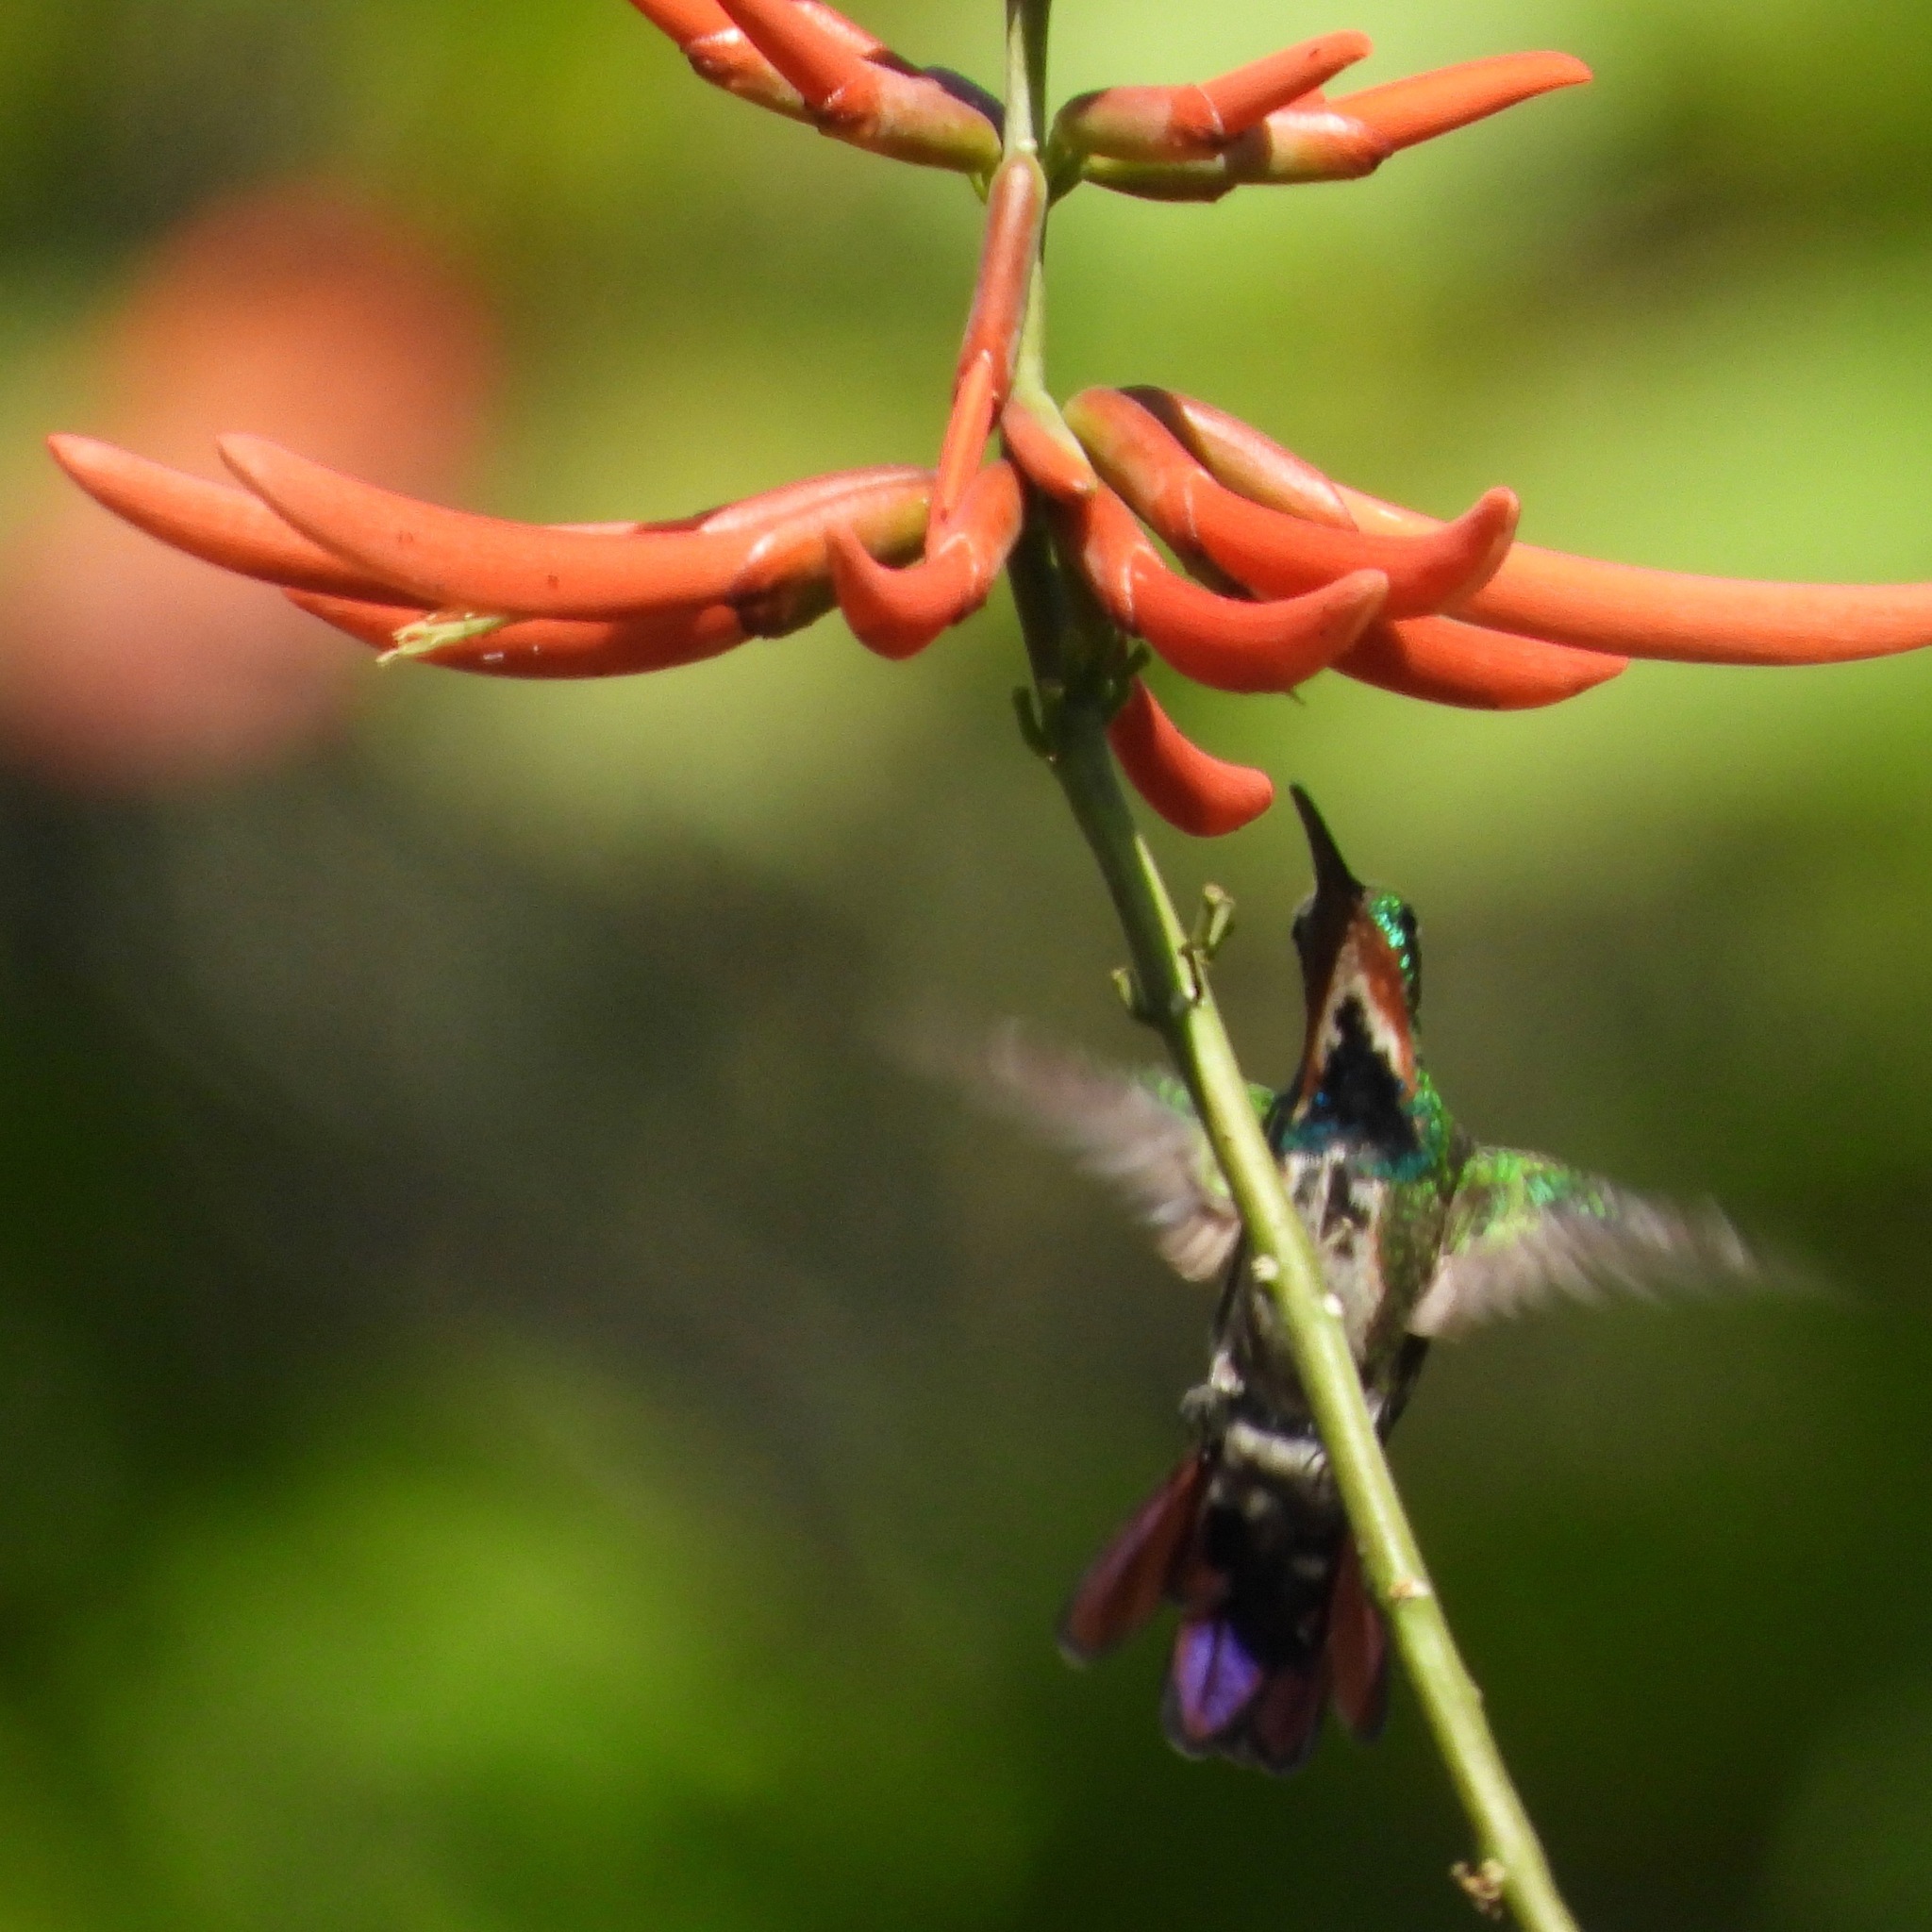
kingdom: Animalia
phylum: Chordata
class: Aves
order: Apodiformes
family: Trochilidae
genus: Anthracothorax
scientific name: Anthracothorax prevostii
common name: Green-breasted mango
